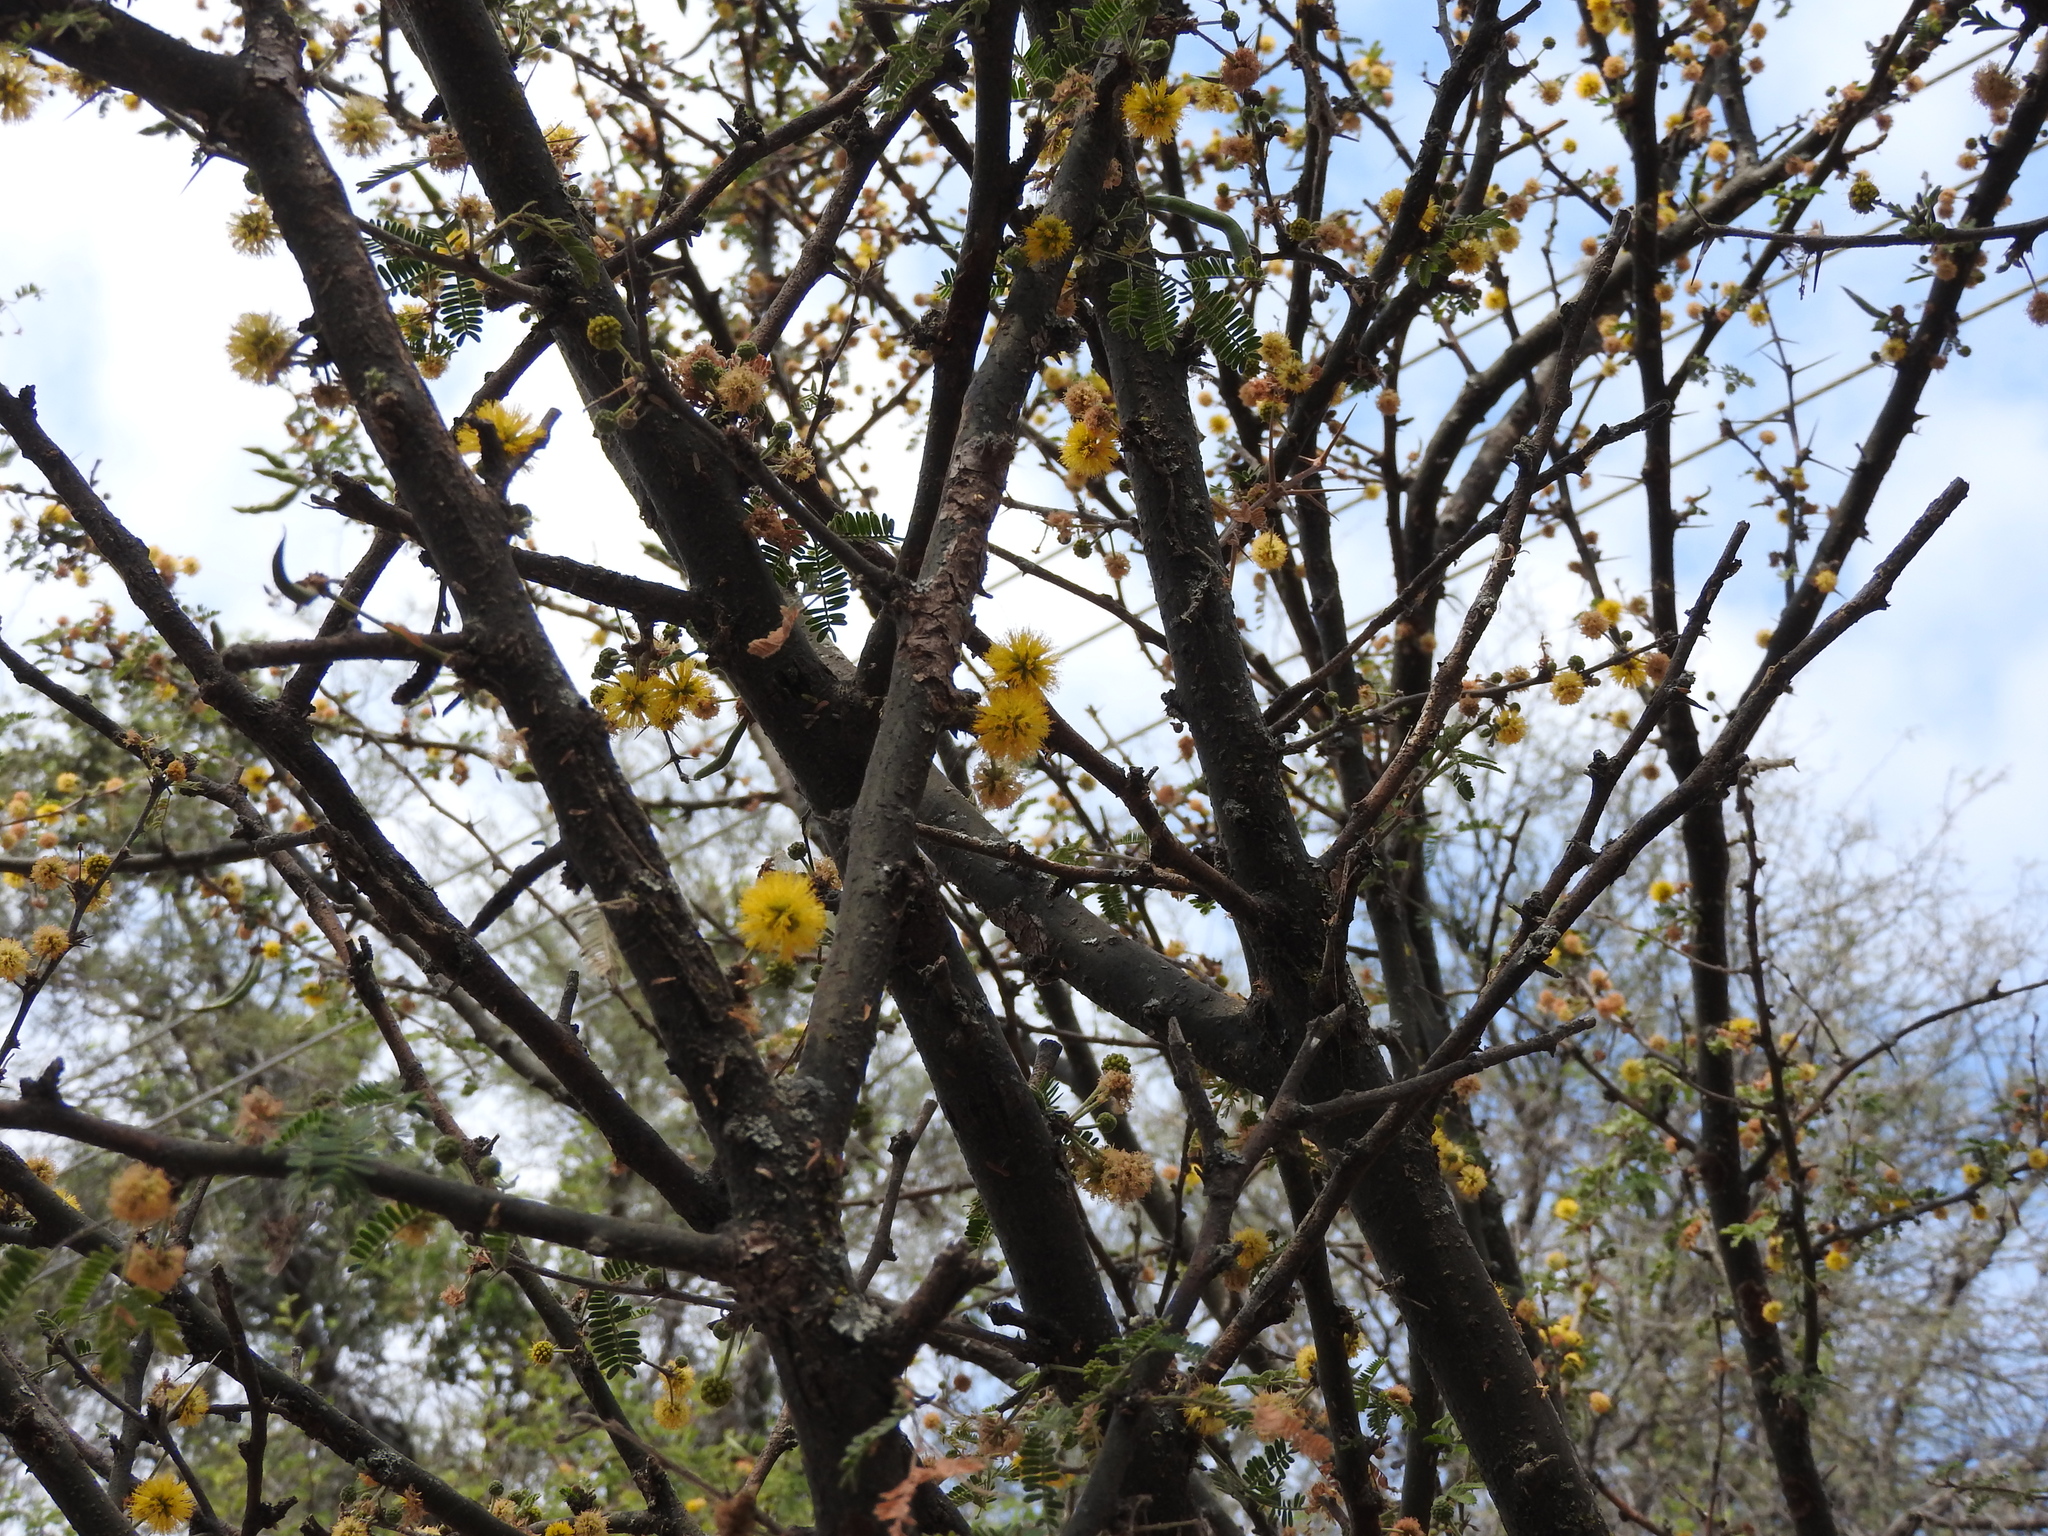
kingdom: Plantae
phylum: Tracheophyta
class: Magnoliopsida
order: Fabales
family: Fabaceae
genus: Vachellia
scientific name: Vachellia farnesiana
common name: Sweet acacia
